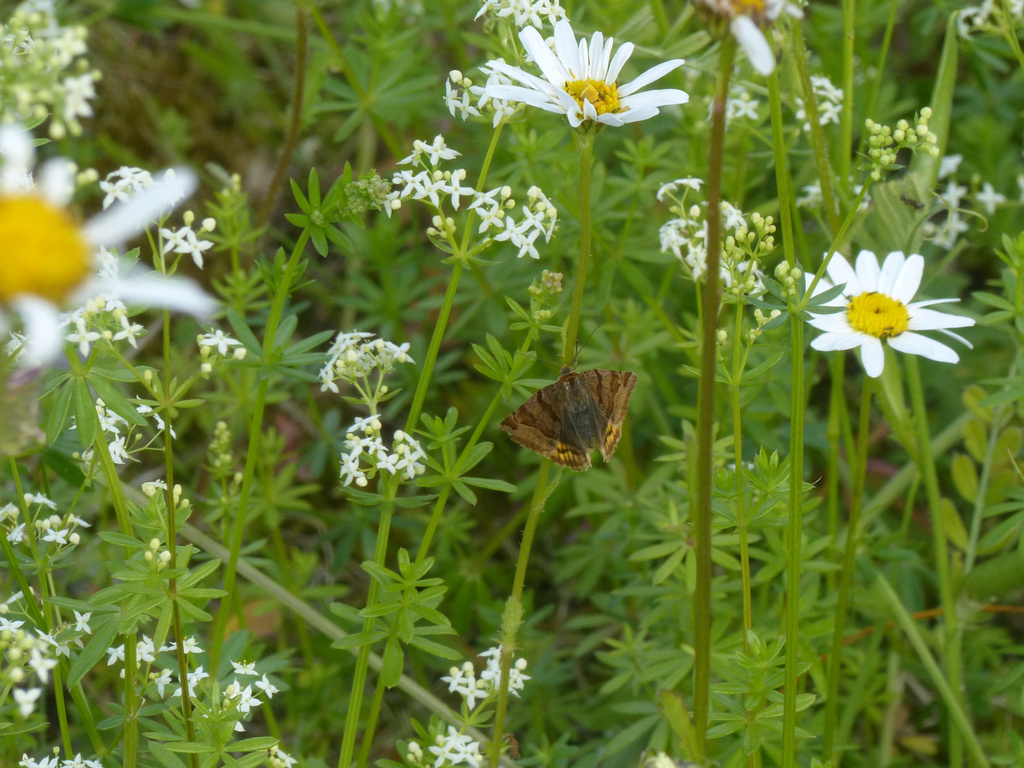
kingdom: Animalia
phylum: Arthropoda
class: Insecta
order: Lepidoptera
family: Erebidae
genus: Euclidia
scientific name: Euclidia glyphica
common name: Burnet companion
